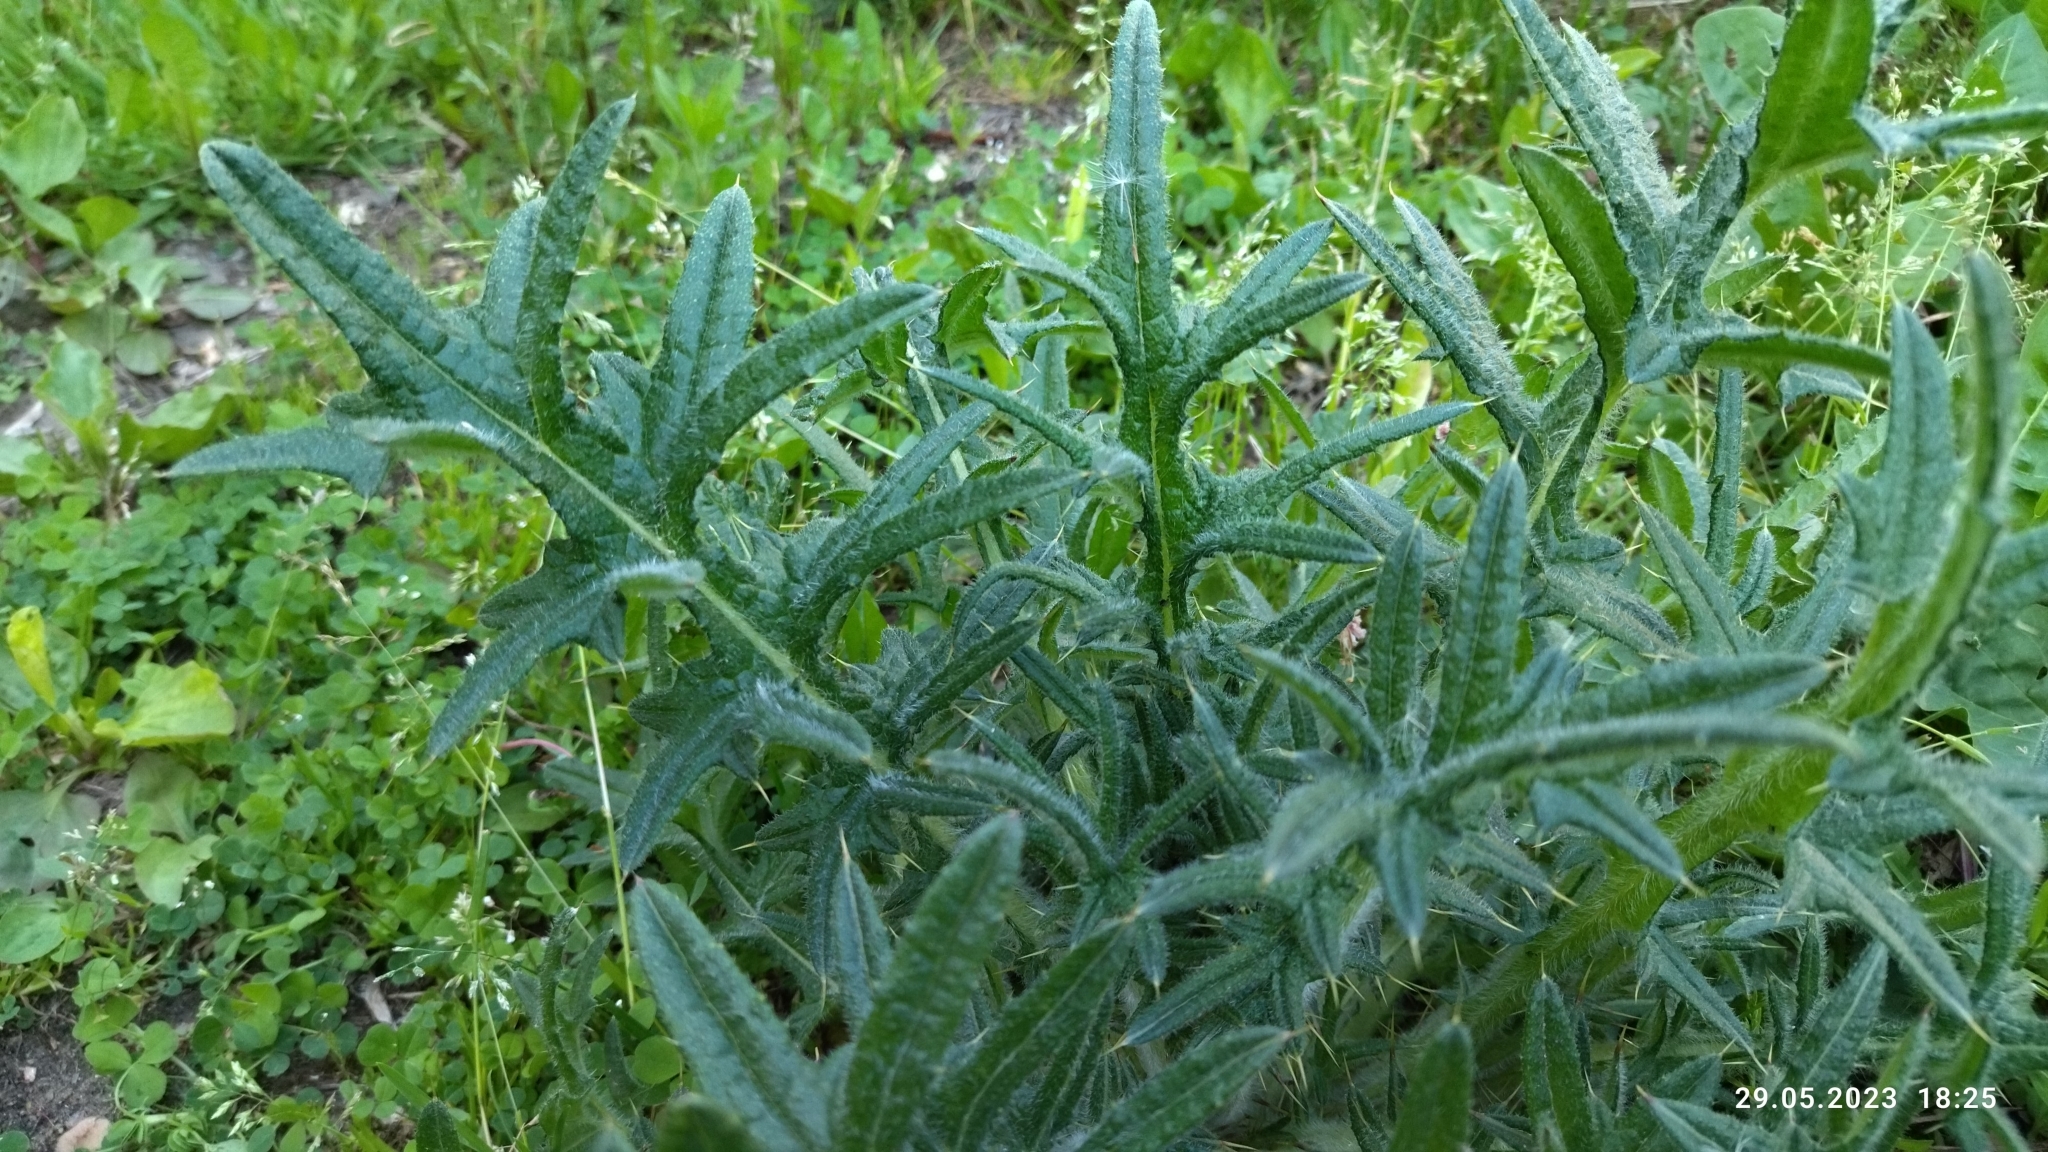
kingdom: Plantae
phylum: Tracheophyta
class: Magnoliopsida
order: Asterales
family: Asteraceae
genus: Cirsium
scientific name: Cirsium vulgare
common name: Bull thistle
